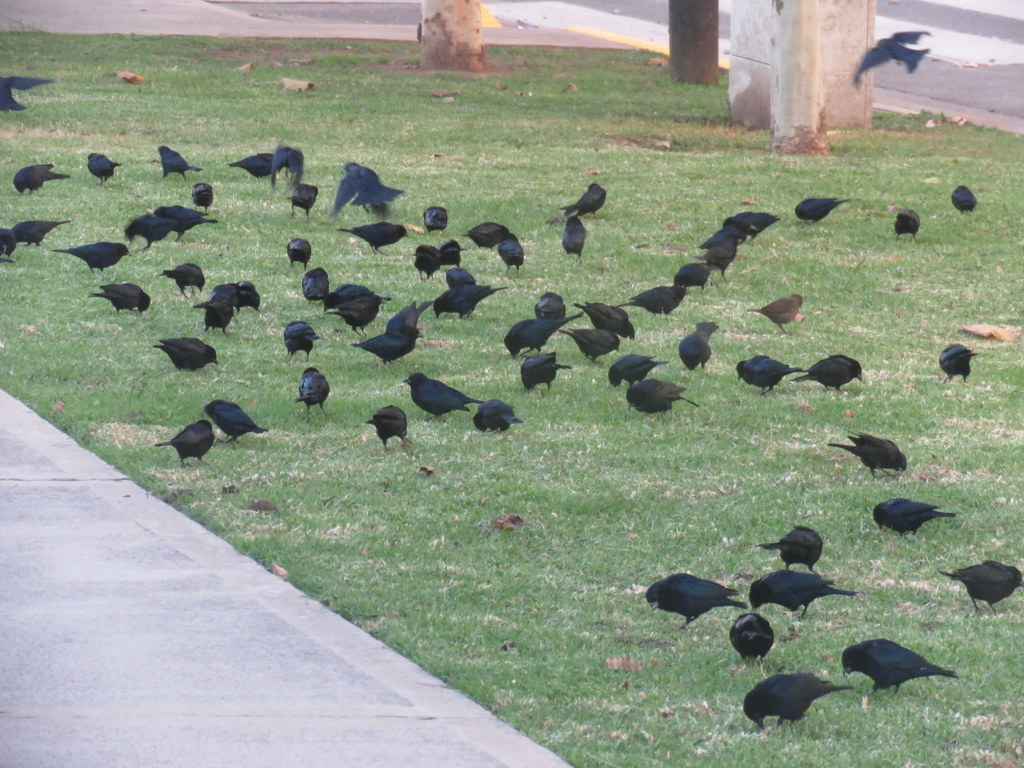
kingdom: Animalia
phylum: Chordata
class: Aves
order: Passeriformes
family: Icteridae
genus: Molothrus
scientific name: Molothrus bonariensis
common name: Shiny cowbird
